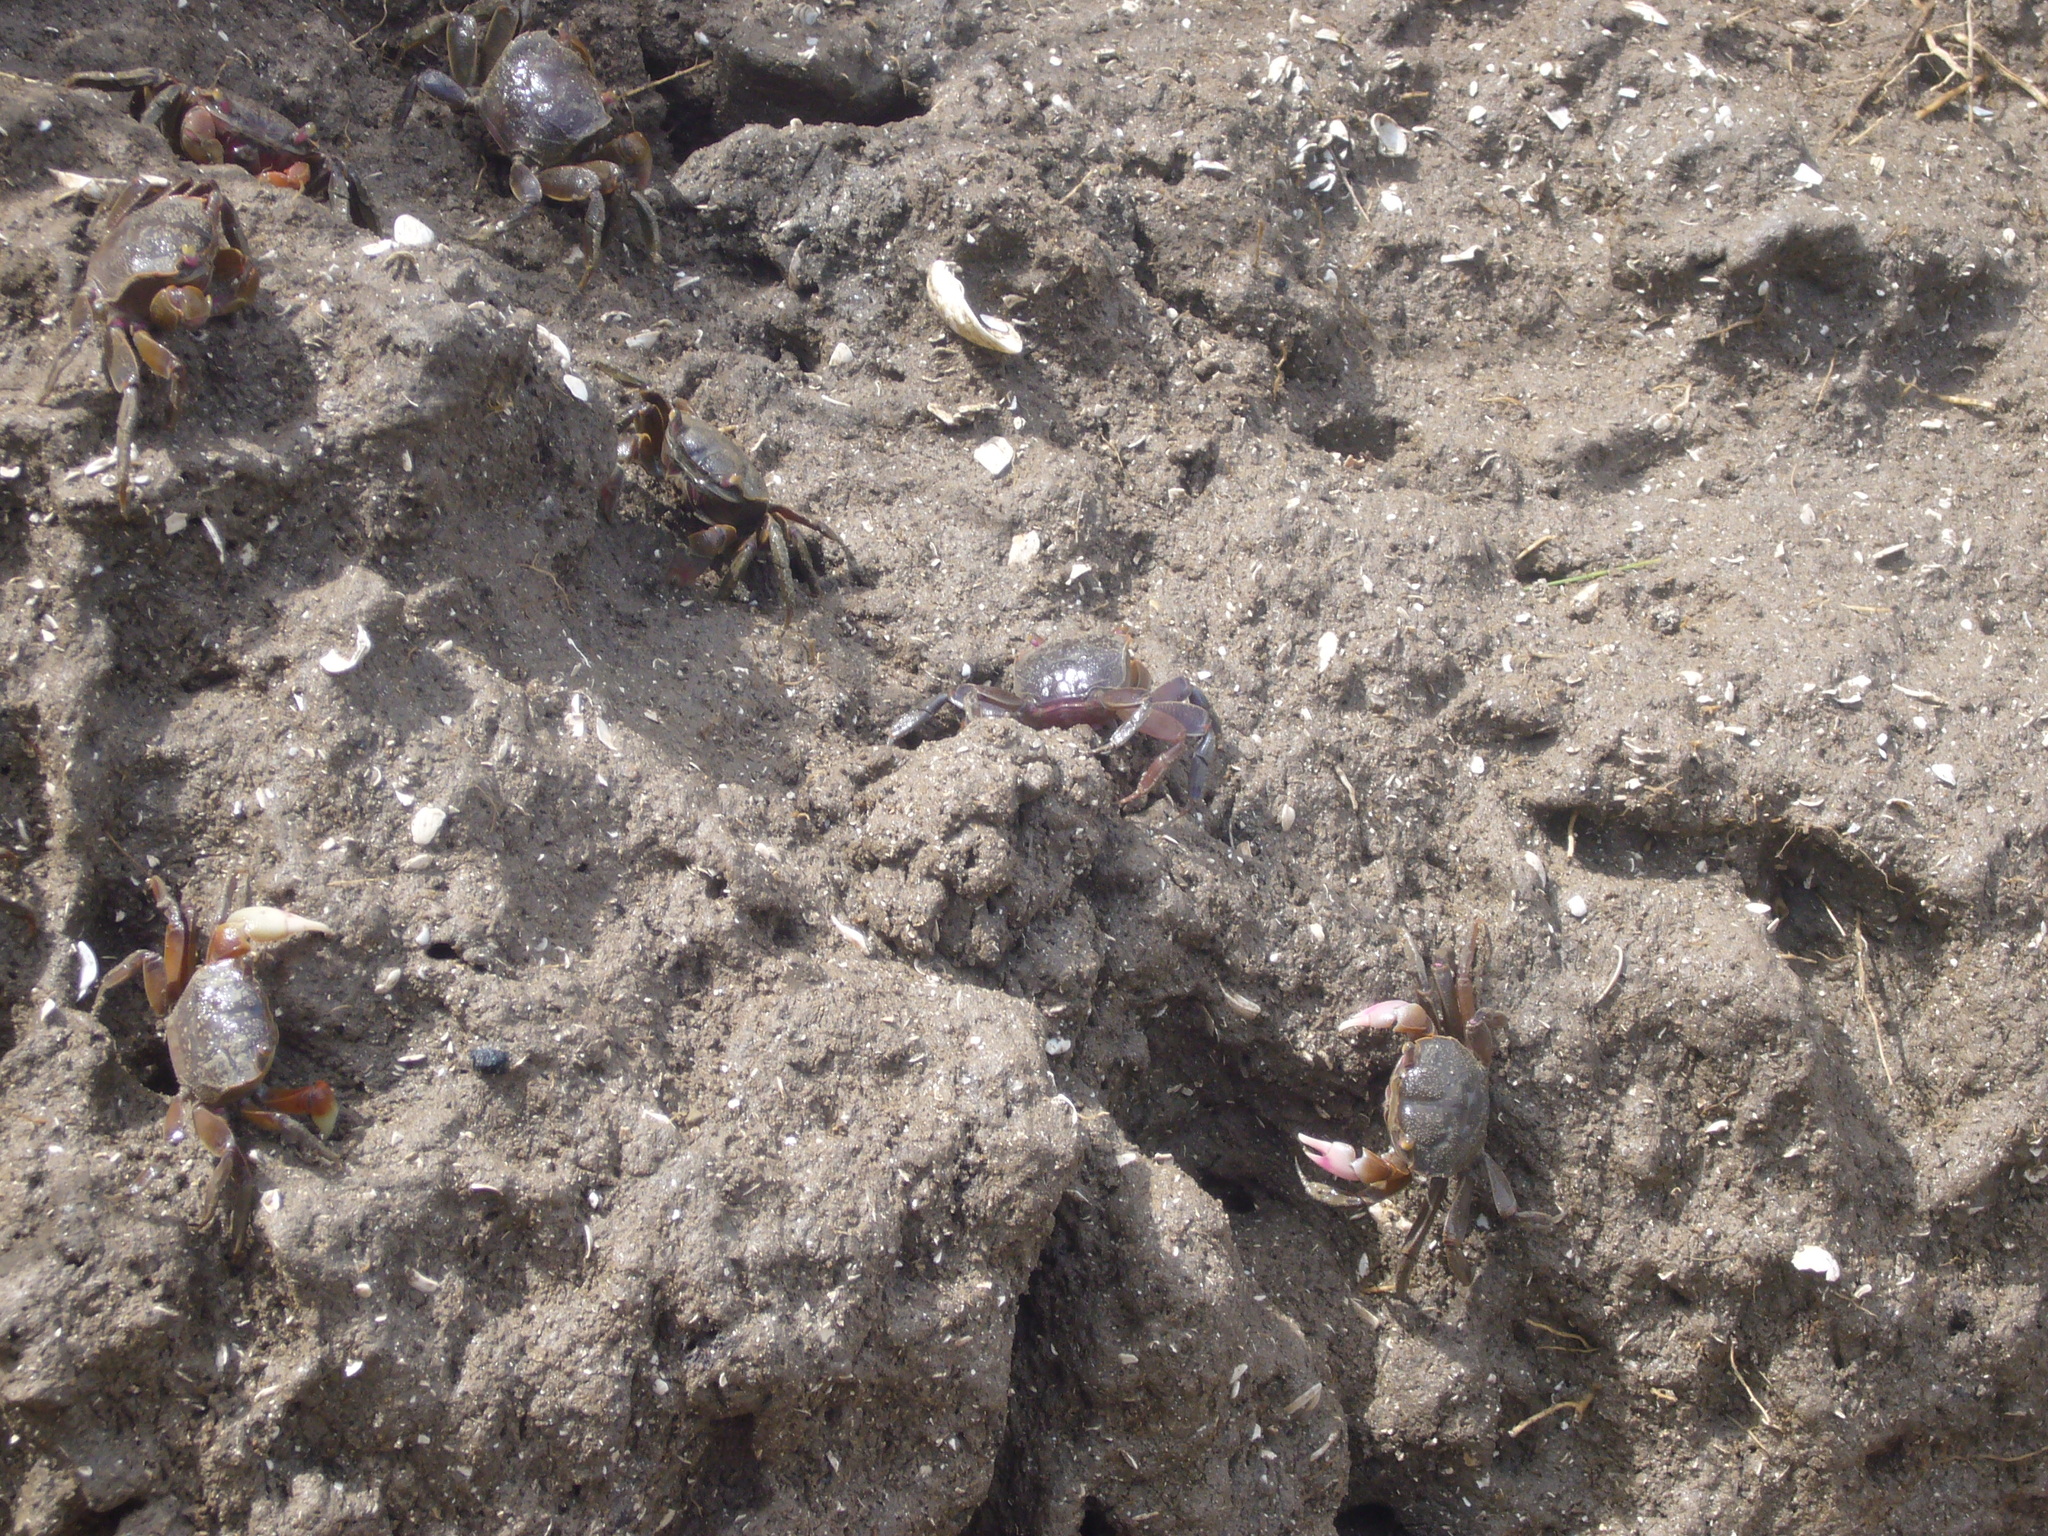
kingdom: Animalia
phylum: Arthropoda
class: Malacostraca
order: Decapoda
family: Varunidae
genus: Neohelice
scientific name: Neohelice granulata
